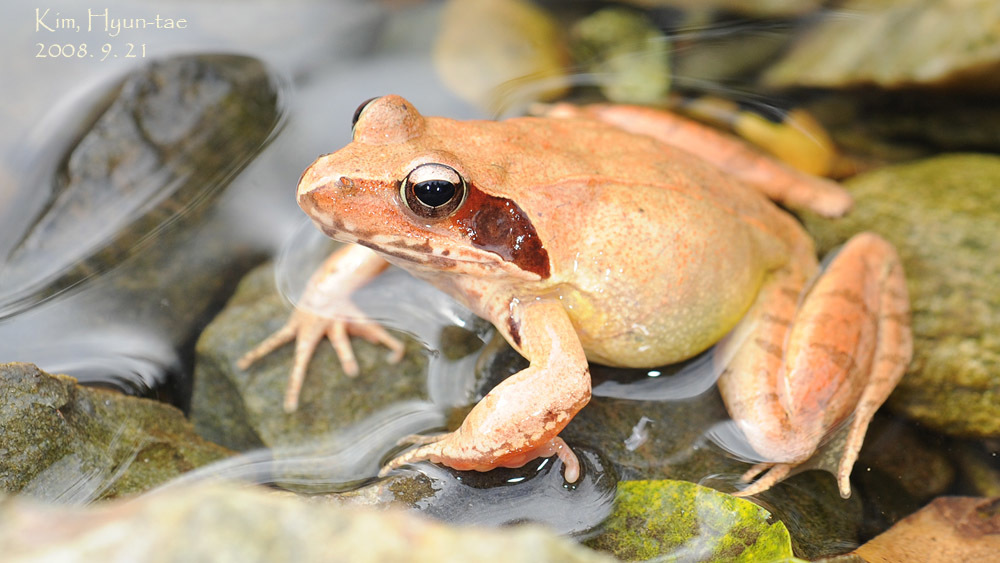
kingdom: Animalia
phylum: Chordata
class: Amphibia
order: Anura
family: Ranidae
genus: Rana
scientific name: Rana uenoi
